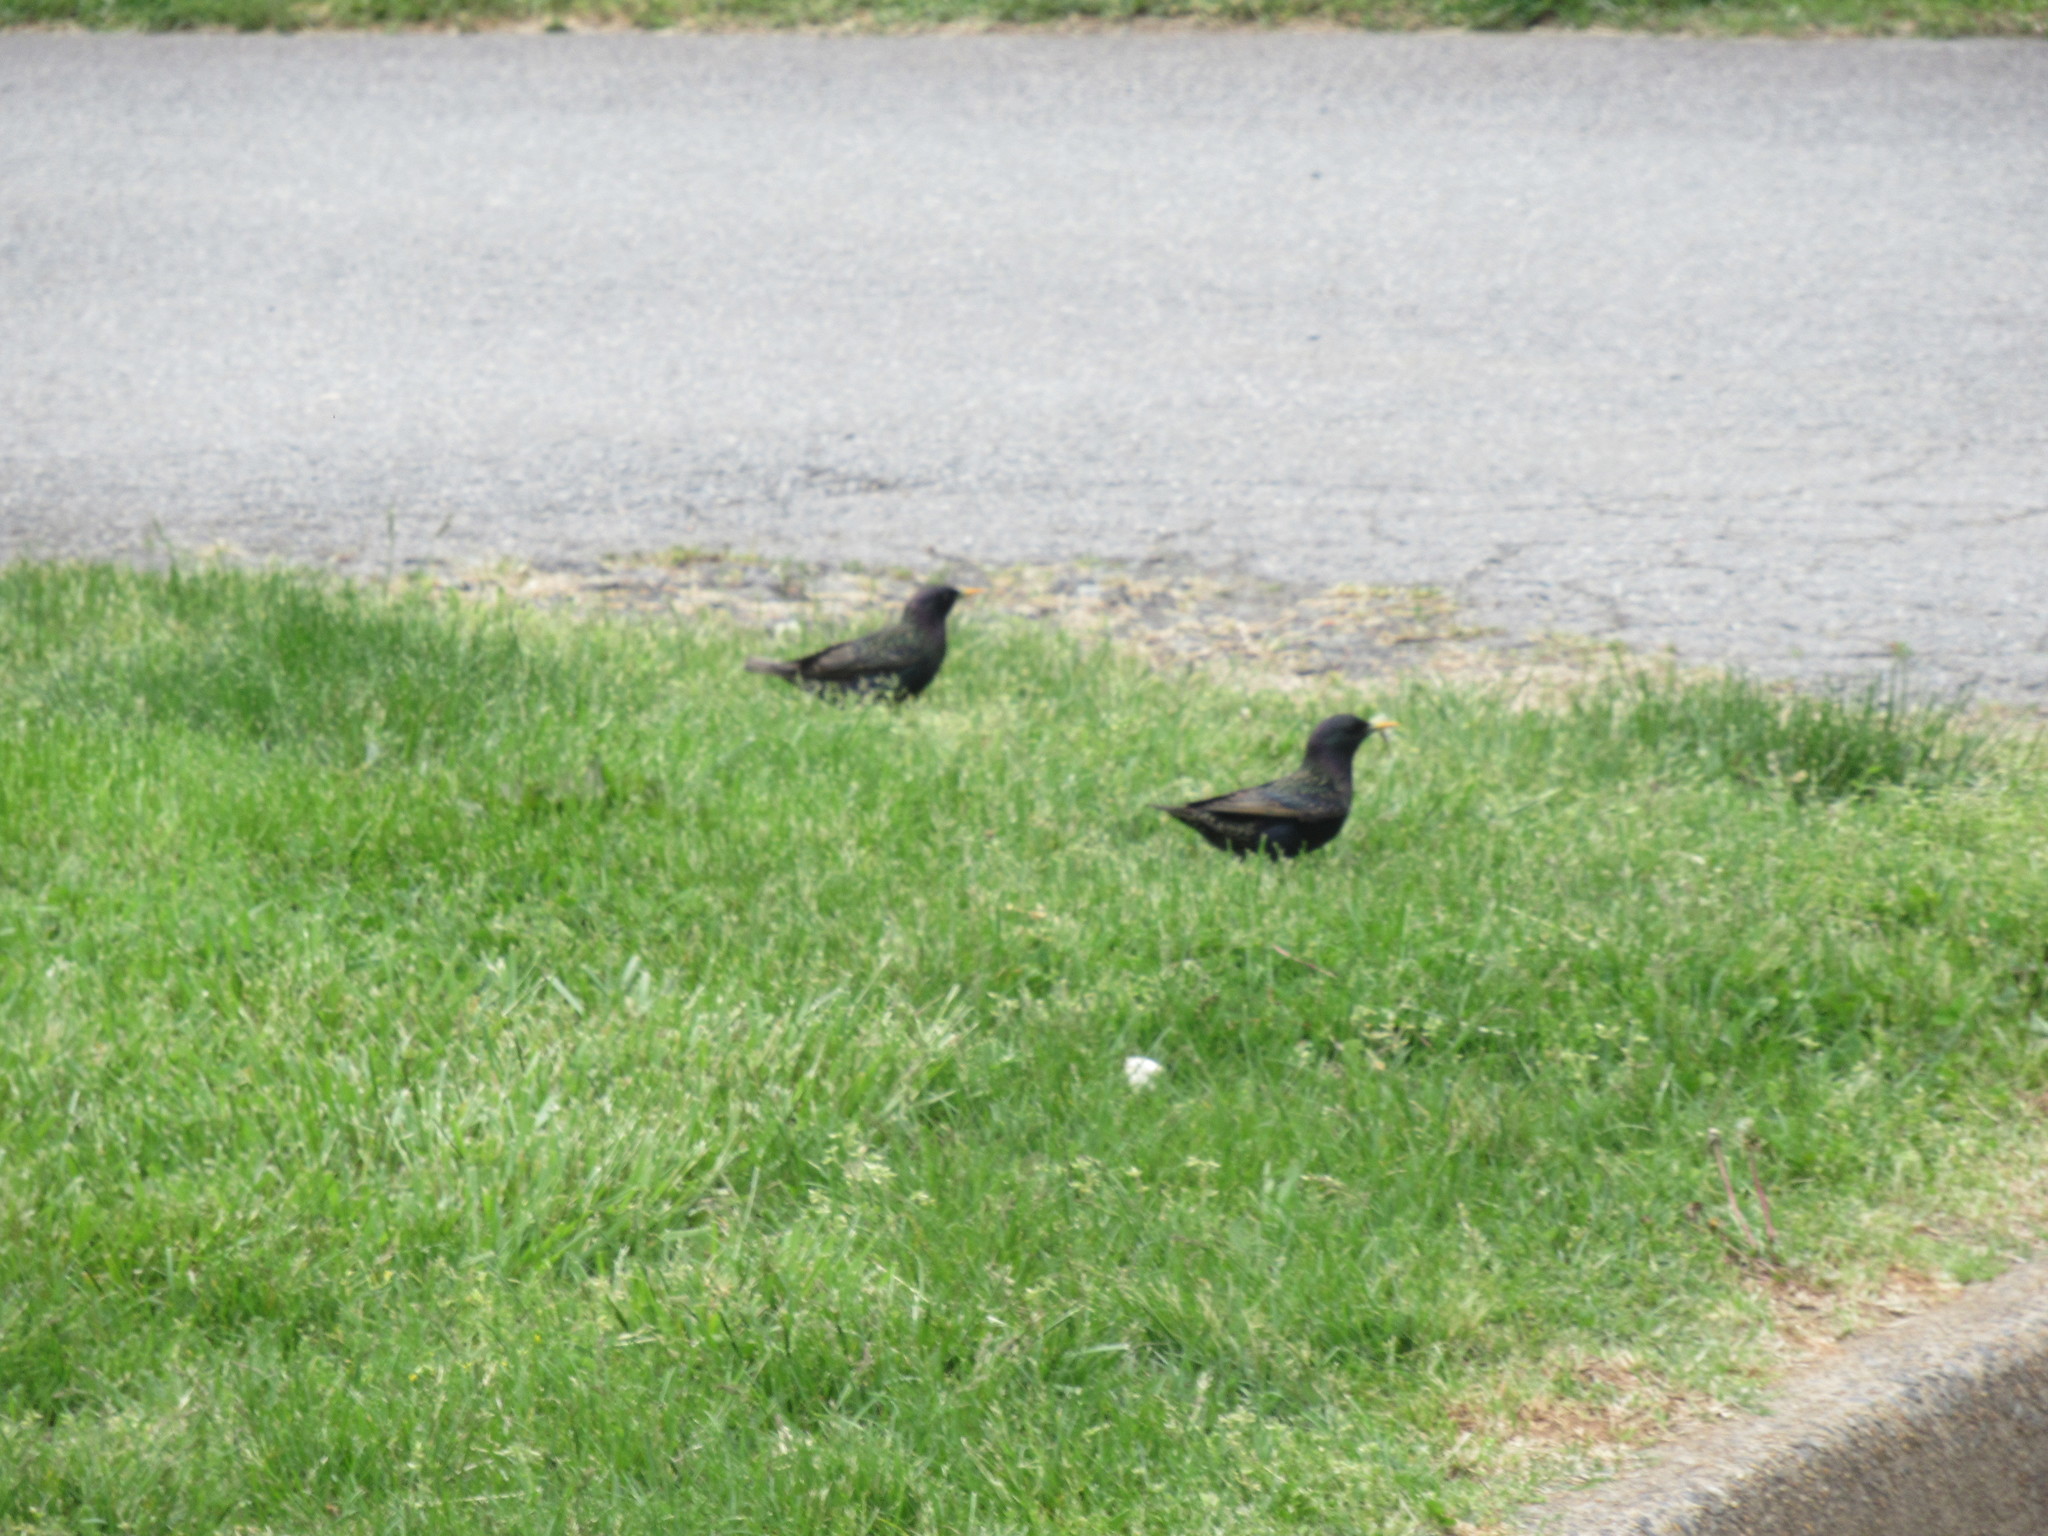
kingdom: Animalia
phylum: Chordata
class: Aves
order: Passeriformes
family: Sturnidae
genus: Sturnus
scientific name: Sturnus vulgaris
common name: Common starling
